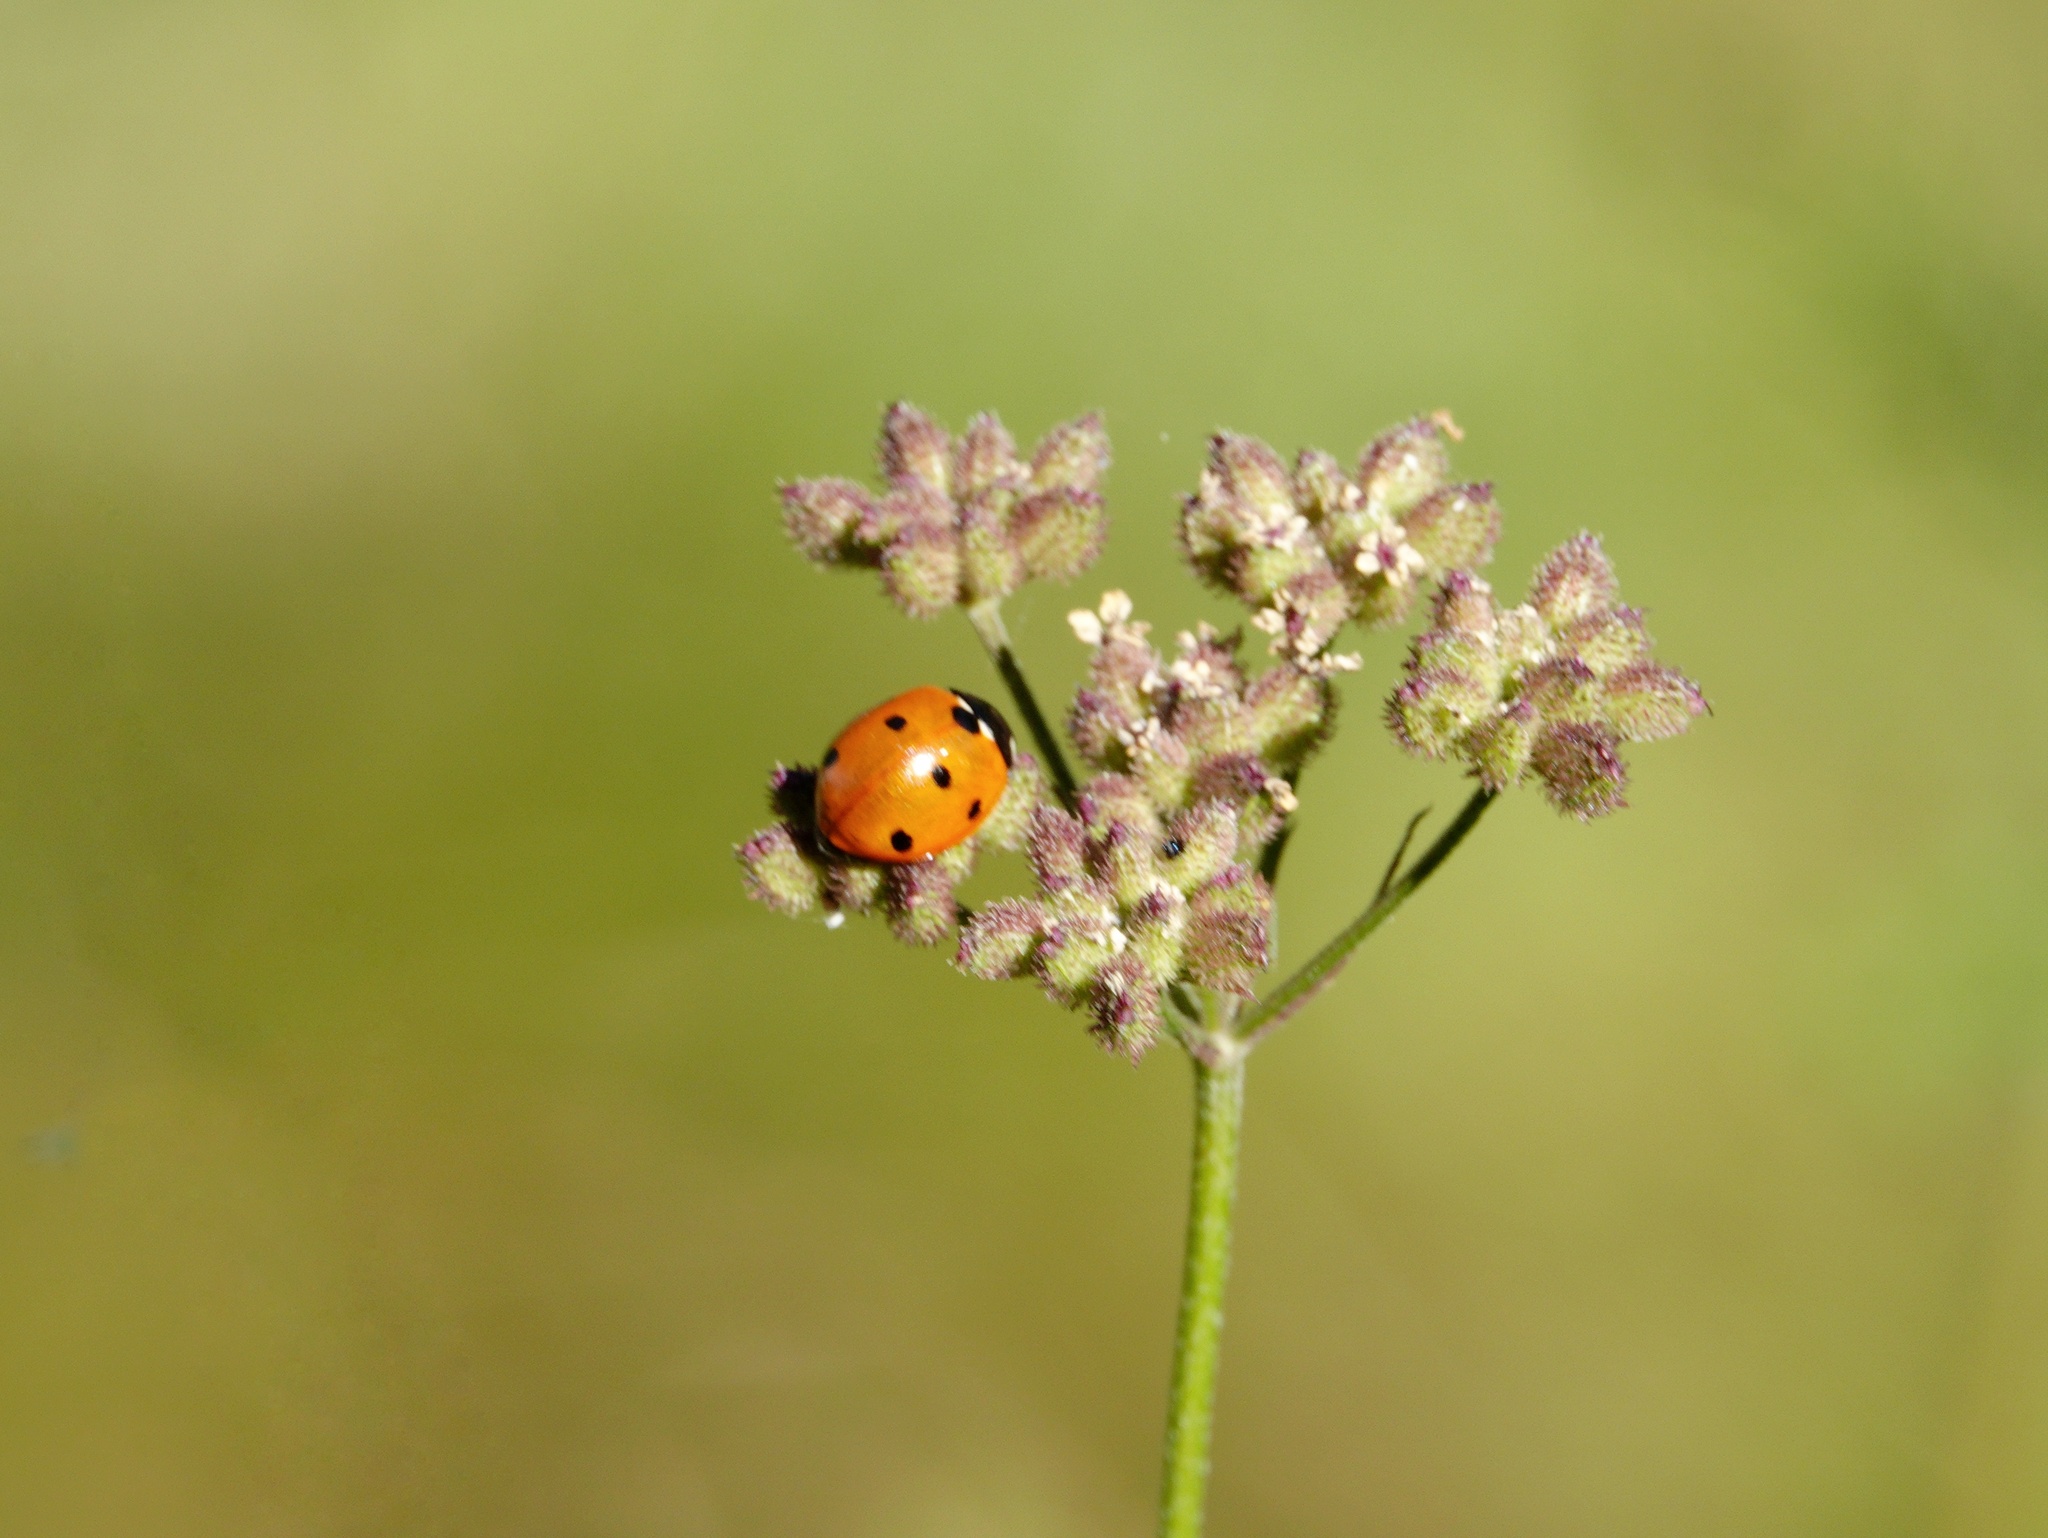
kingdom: Animalia
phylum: Arthropoda
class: Insecta
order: Coleoptera
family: Coccinellidae
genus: Coccinella
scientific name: Coccinella septempunctata
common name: Sevenspotted lady beetle
